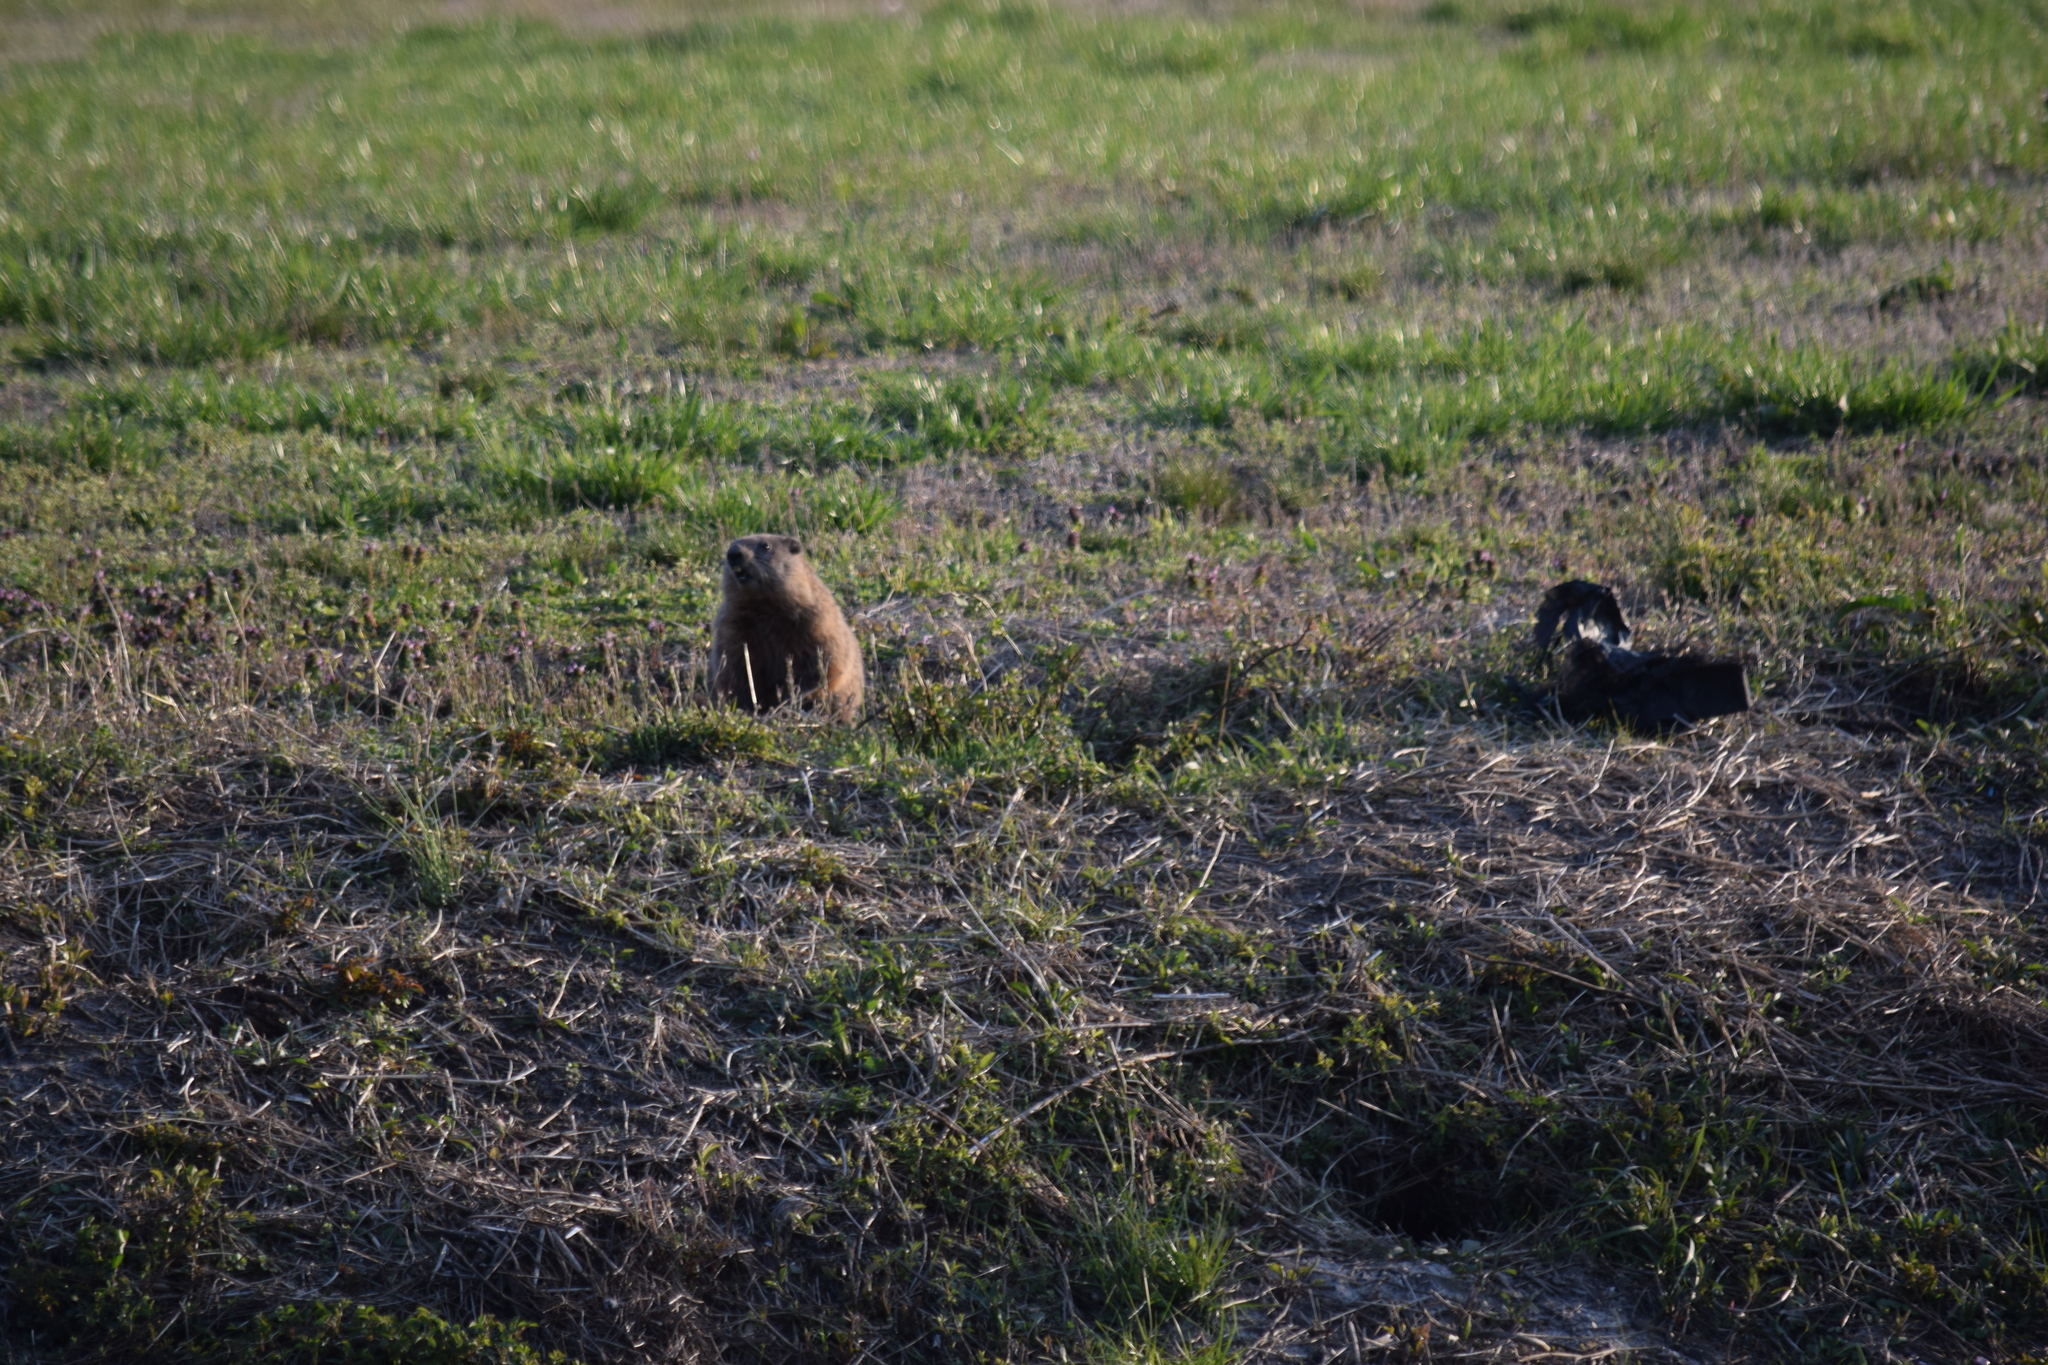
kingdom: Animalia
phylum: Chordata
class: Mammalia
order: Rodentia
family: Sciuridae
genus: Marmota
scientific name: Marmota monax
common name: Groundhog
